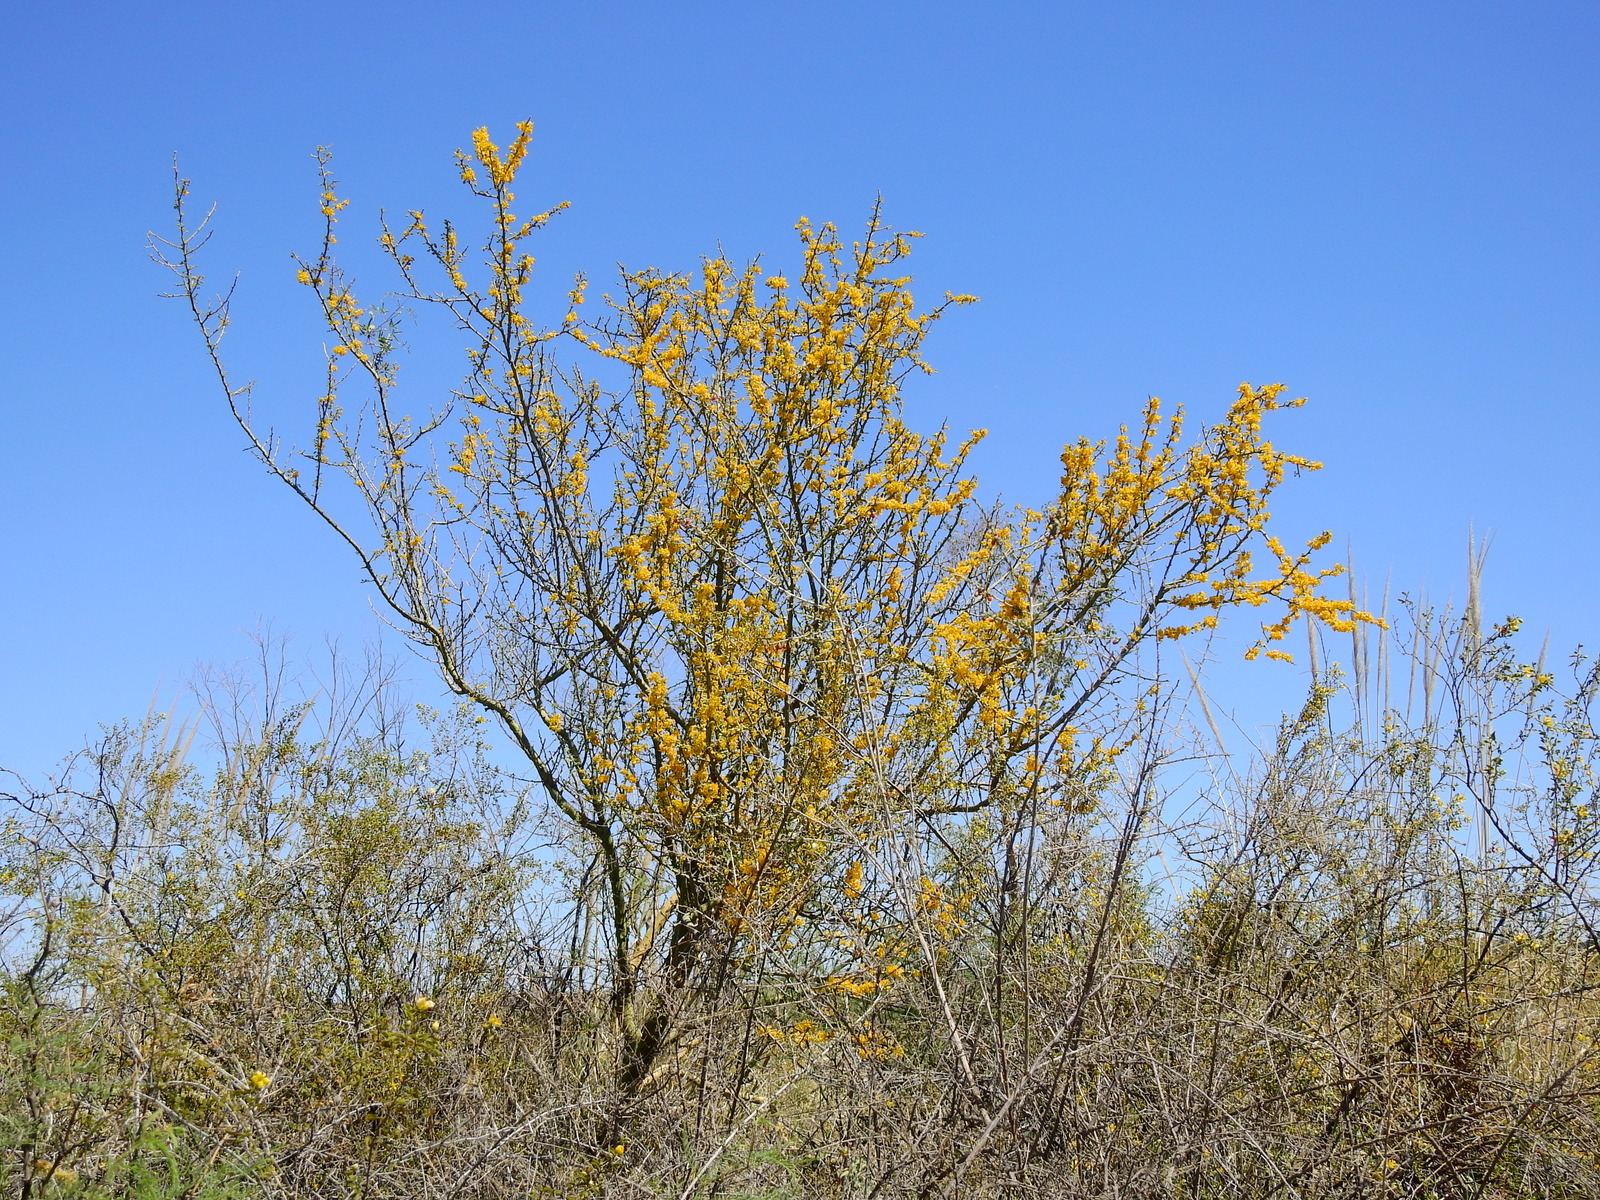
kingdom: Plantae
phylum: Tracheophyta
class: Magnoliopsida
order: Fabales
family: Fabaceae
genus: Parkinsonia
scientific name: Parkinsonia praecox
